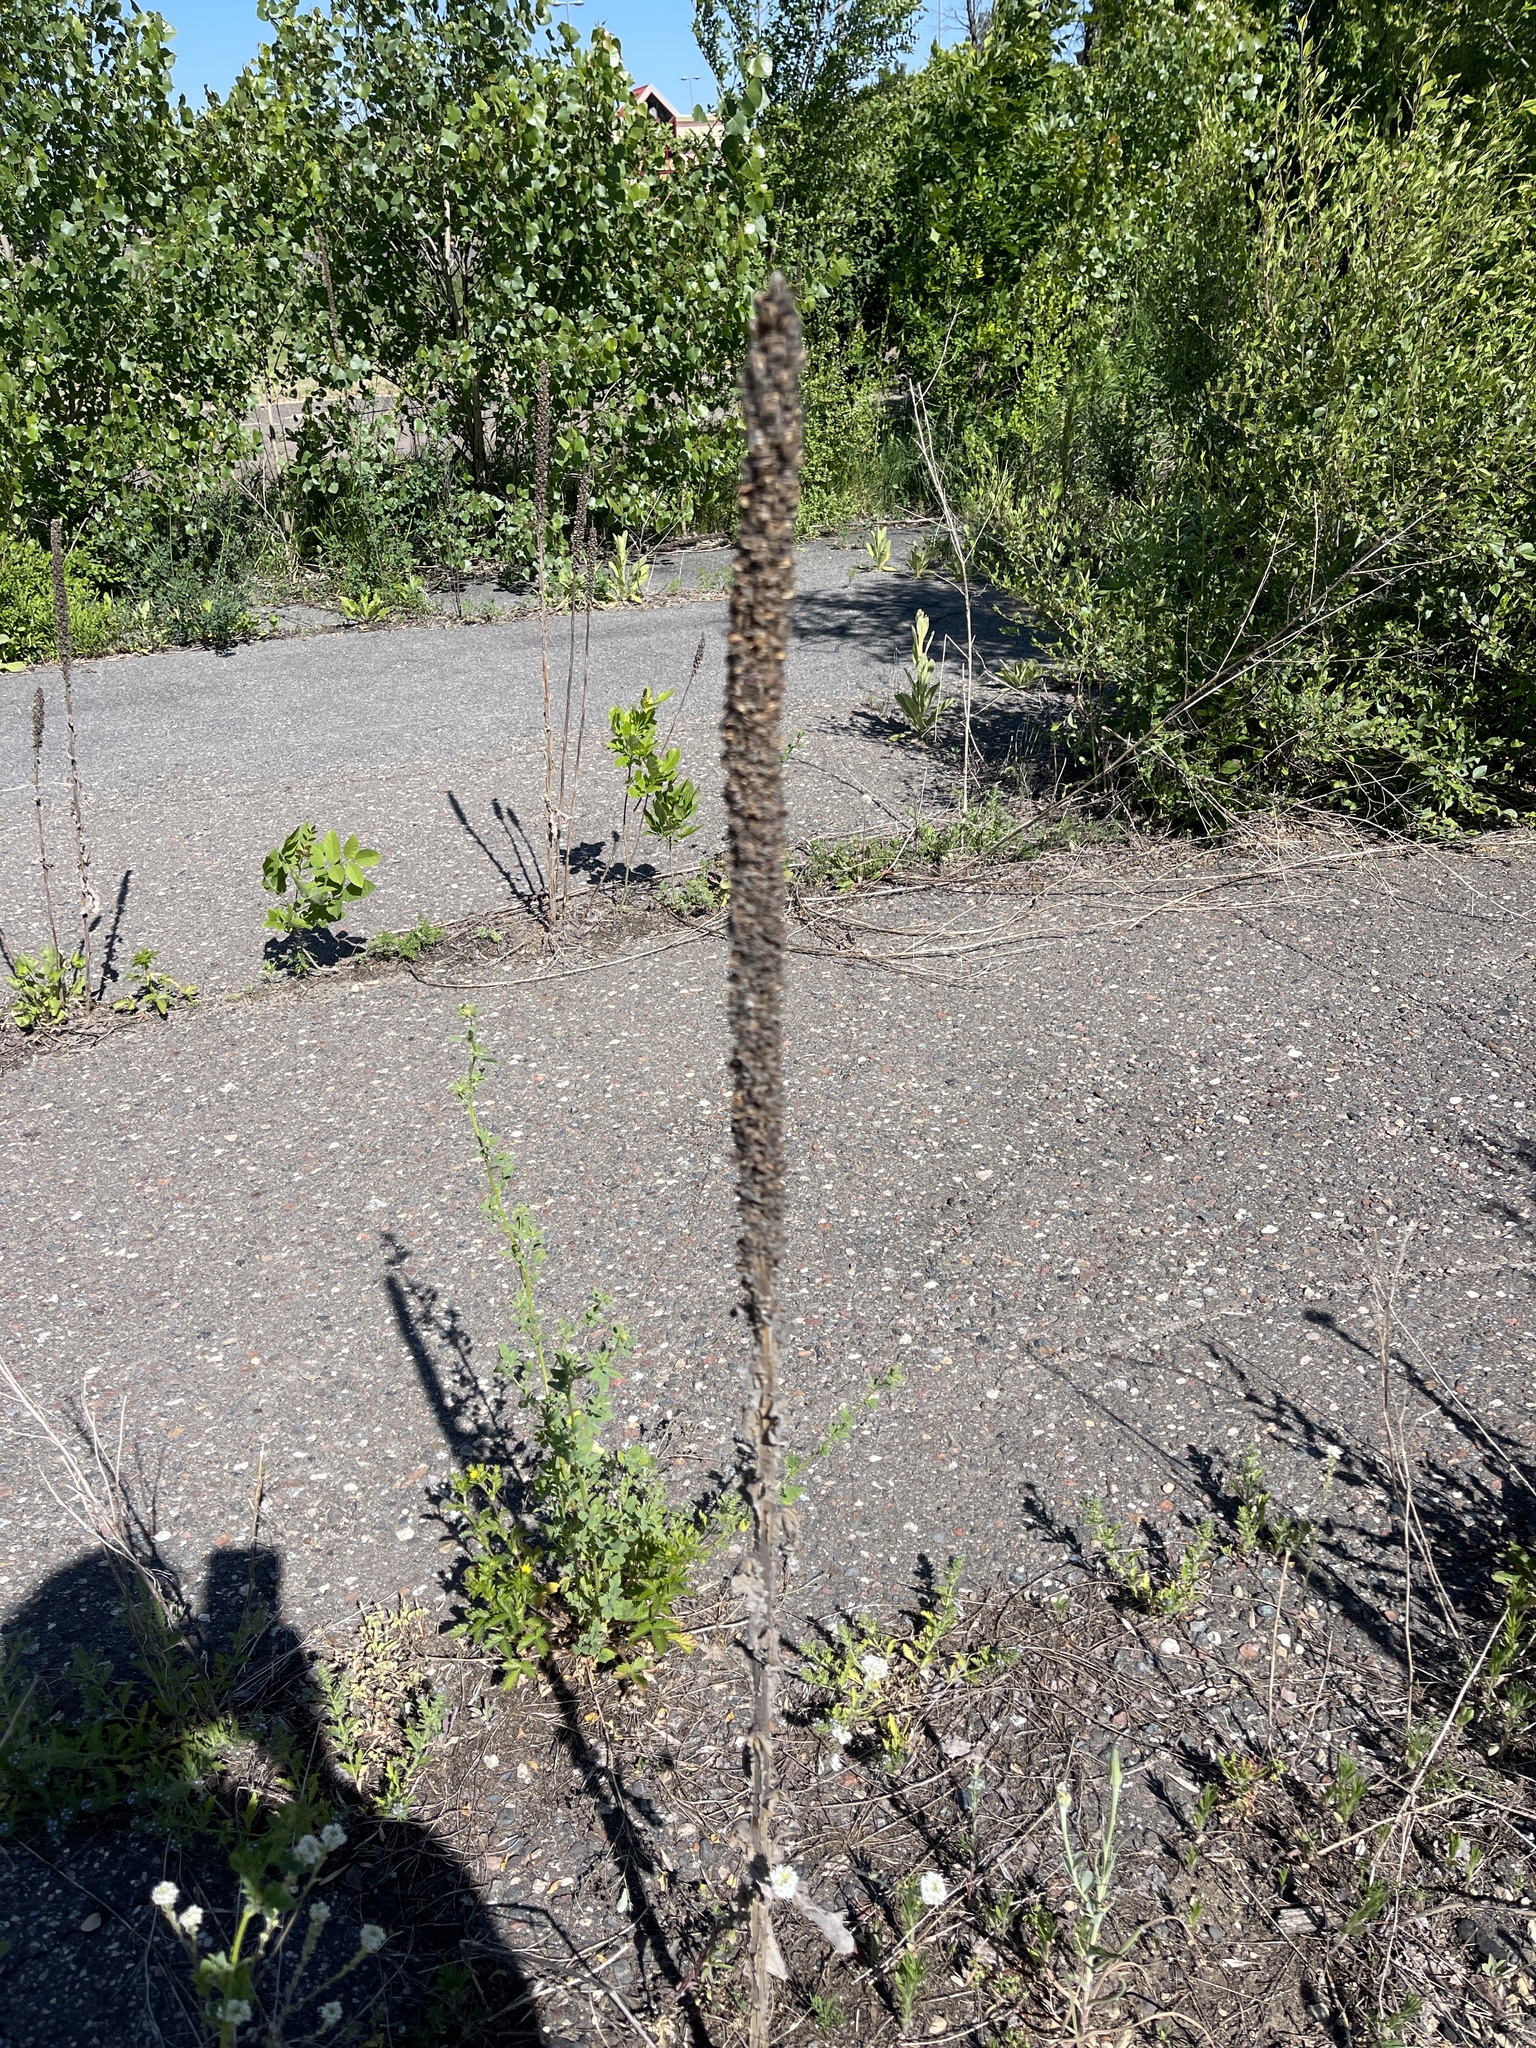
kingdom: Plantae
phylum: Tracheophyta
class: Magnoliopsida
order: Lamiales
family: Scrophulariaceae
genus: Verbascum
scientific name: Verbascum thapsus
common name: Common mullein
